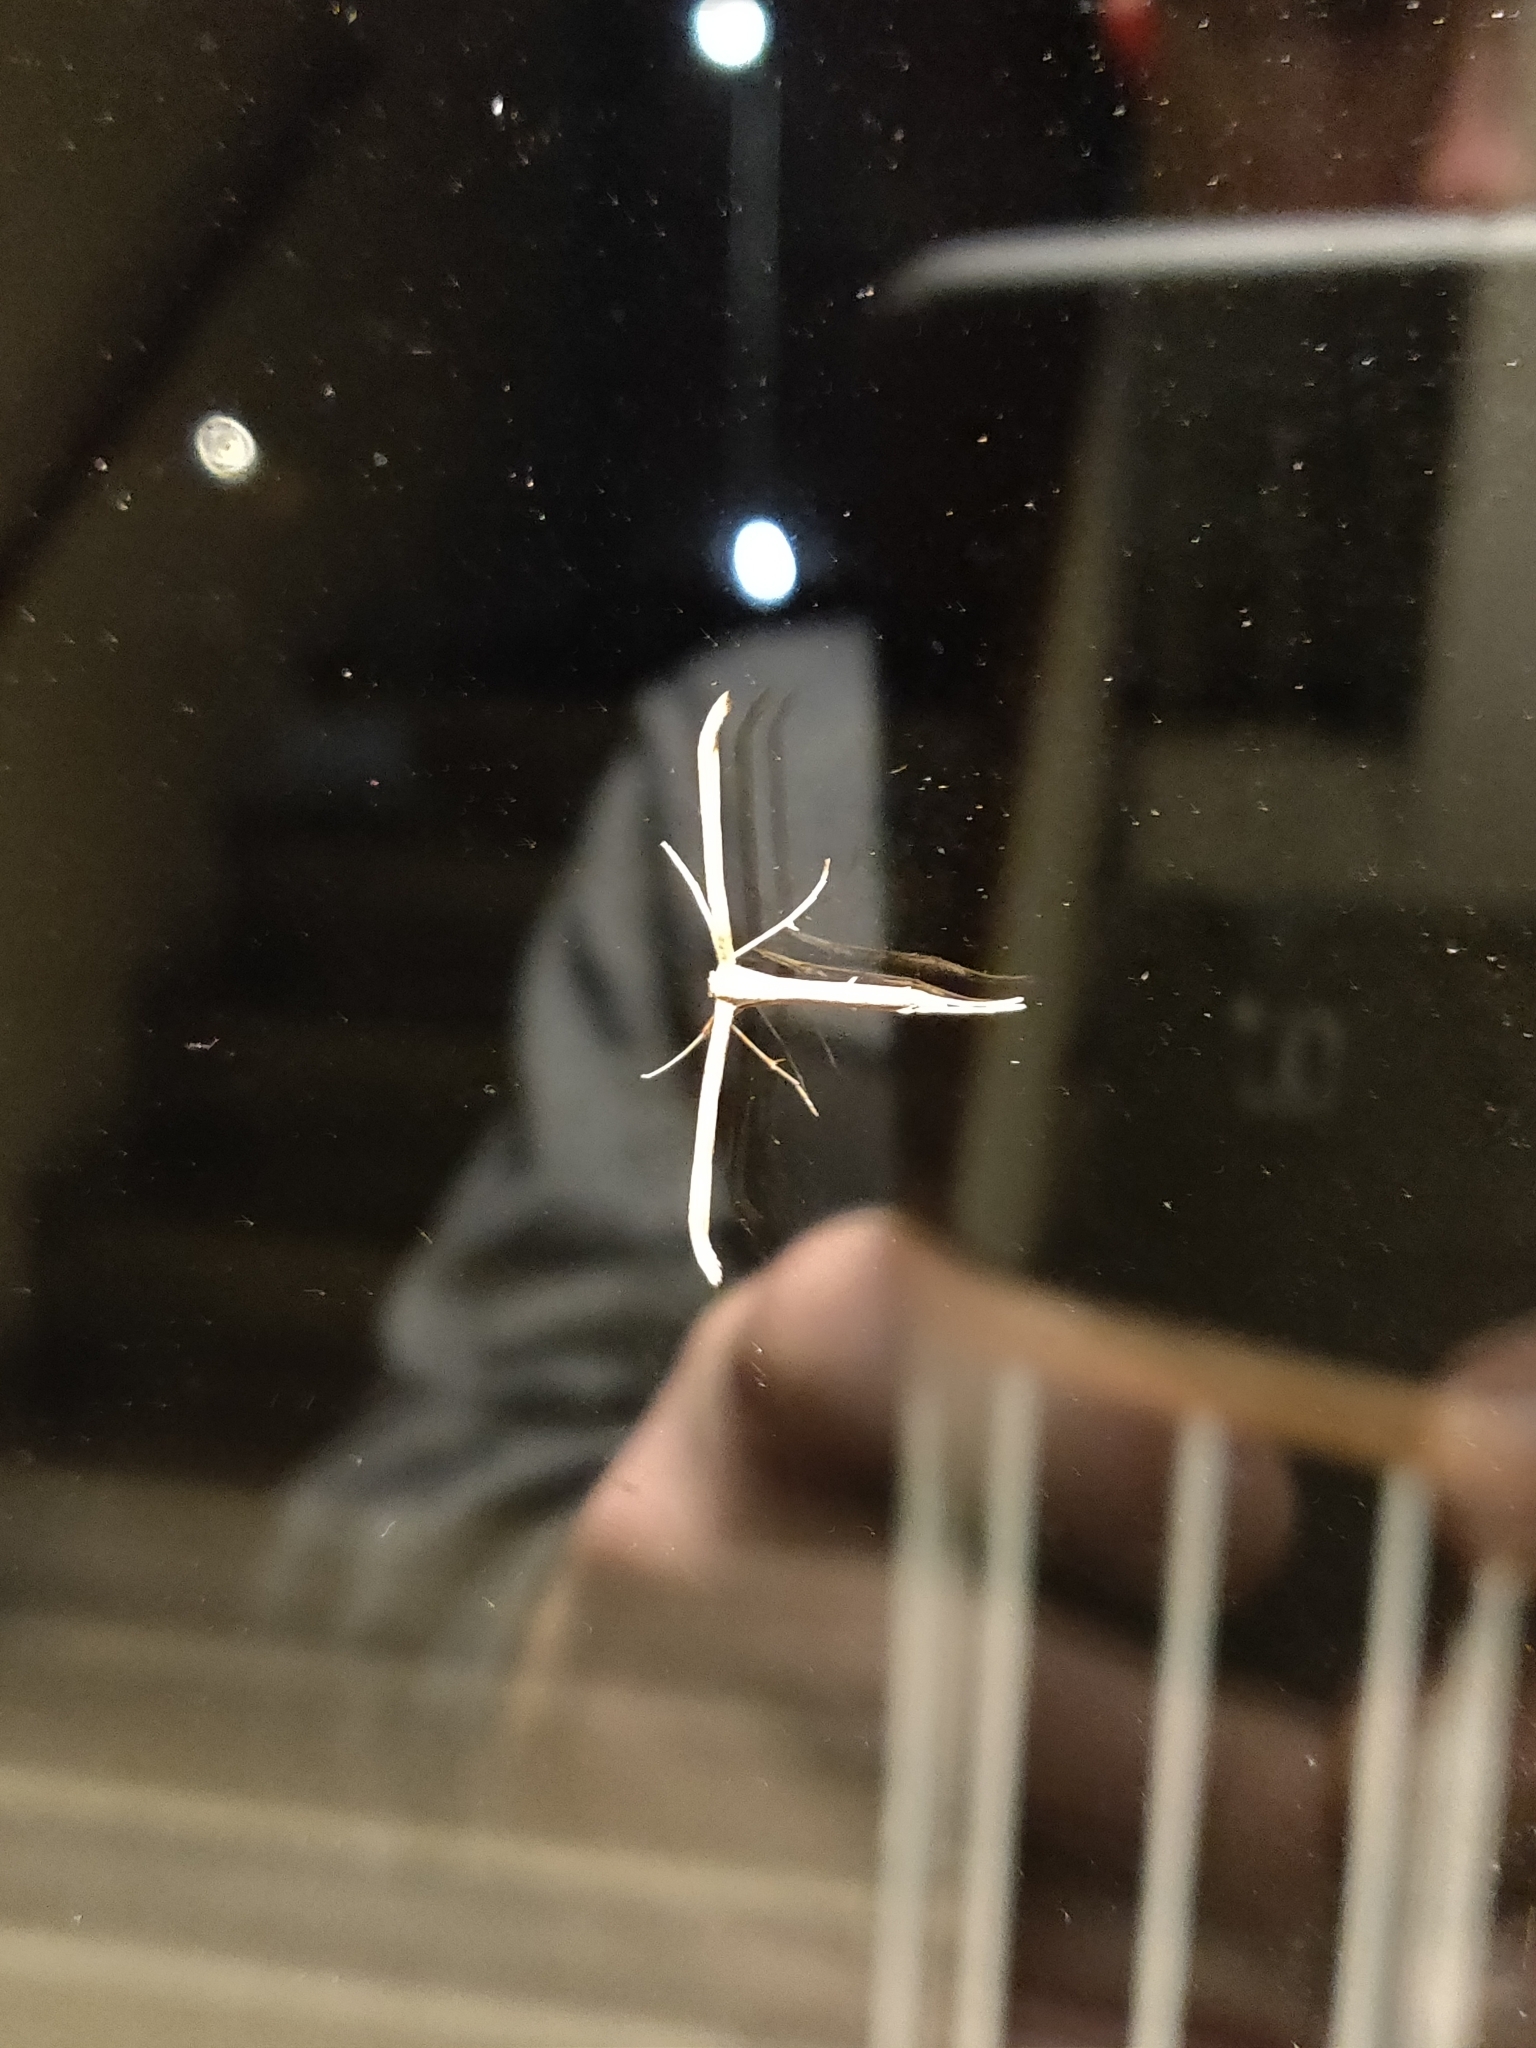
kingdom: Animalia
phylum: Arthropoda
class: Insecta
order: Lepidoptera
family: Pterophoridae
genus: Emmelina
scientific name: Emmelina monodactyla
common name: Common plume
